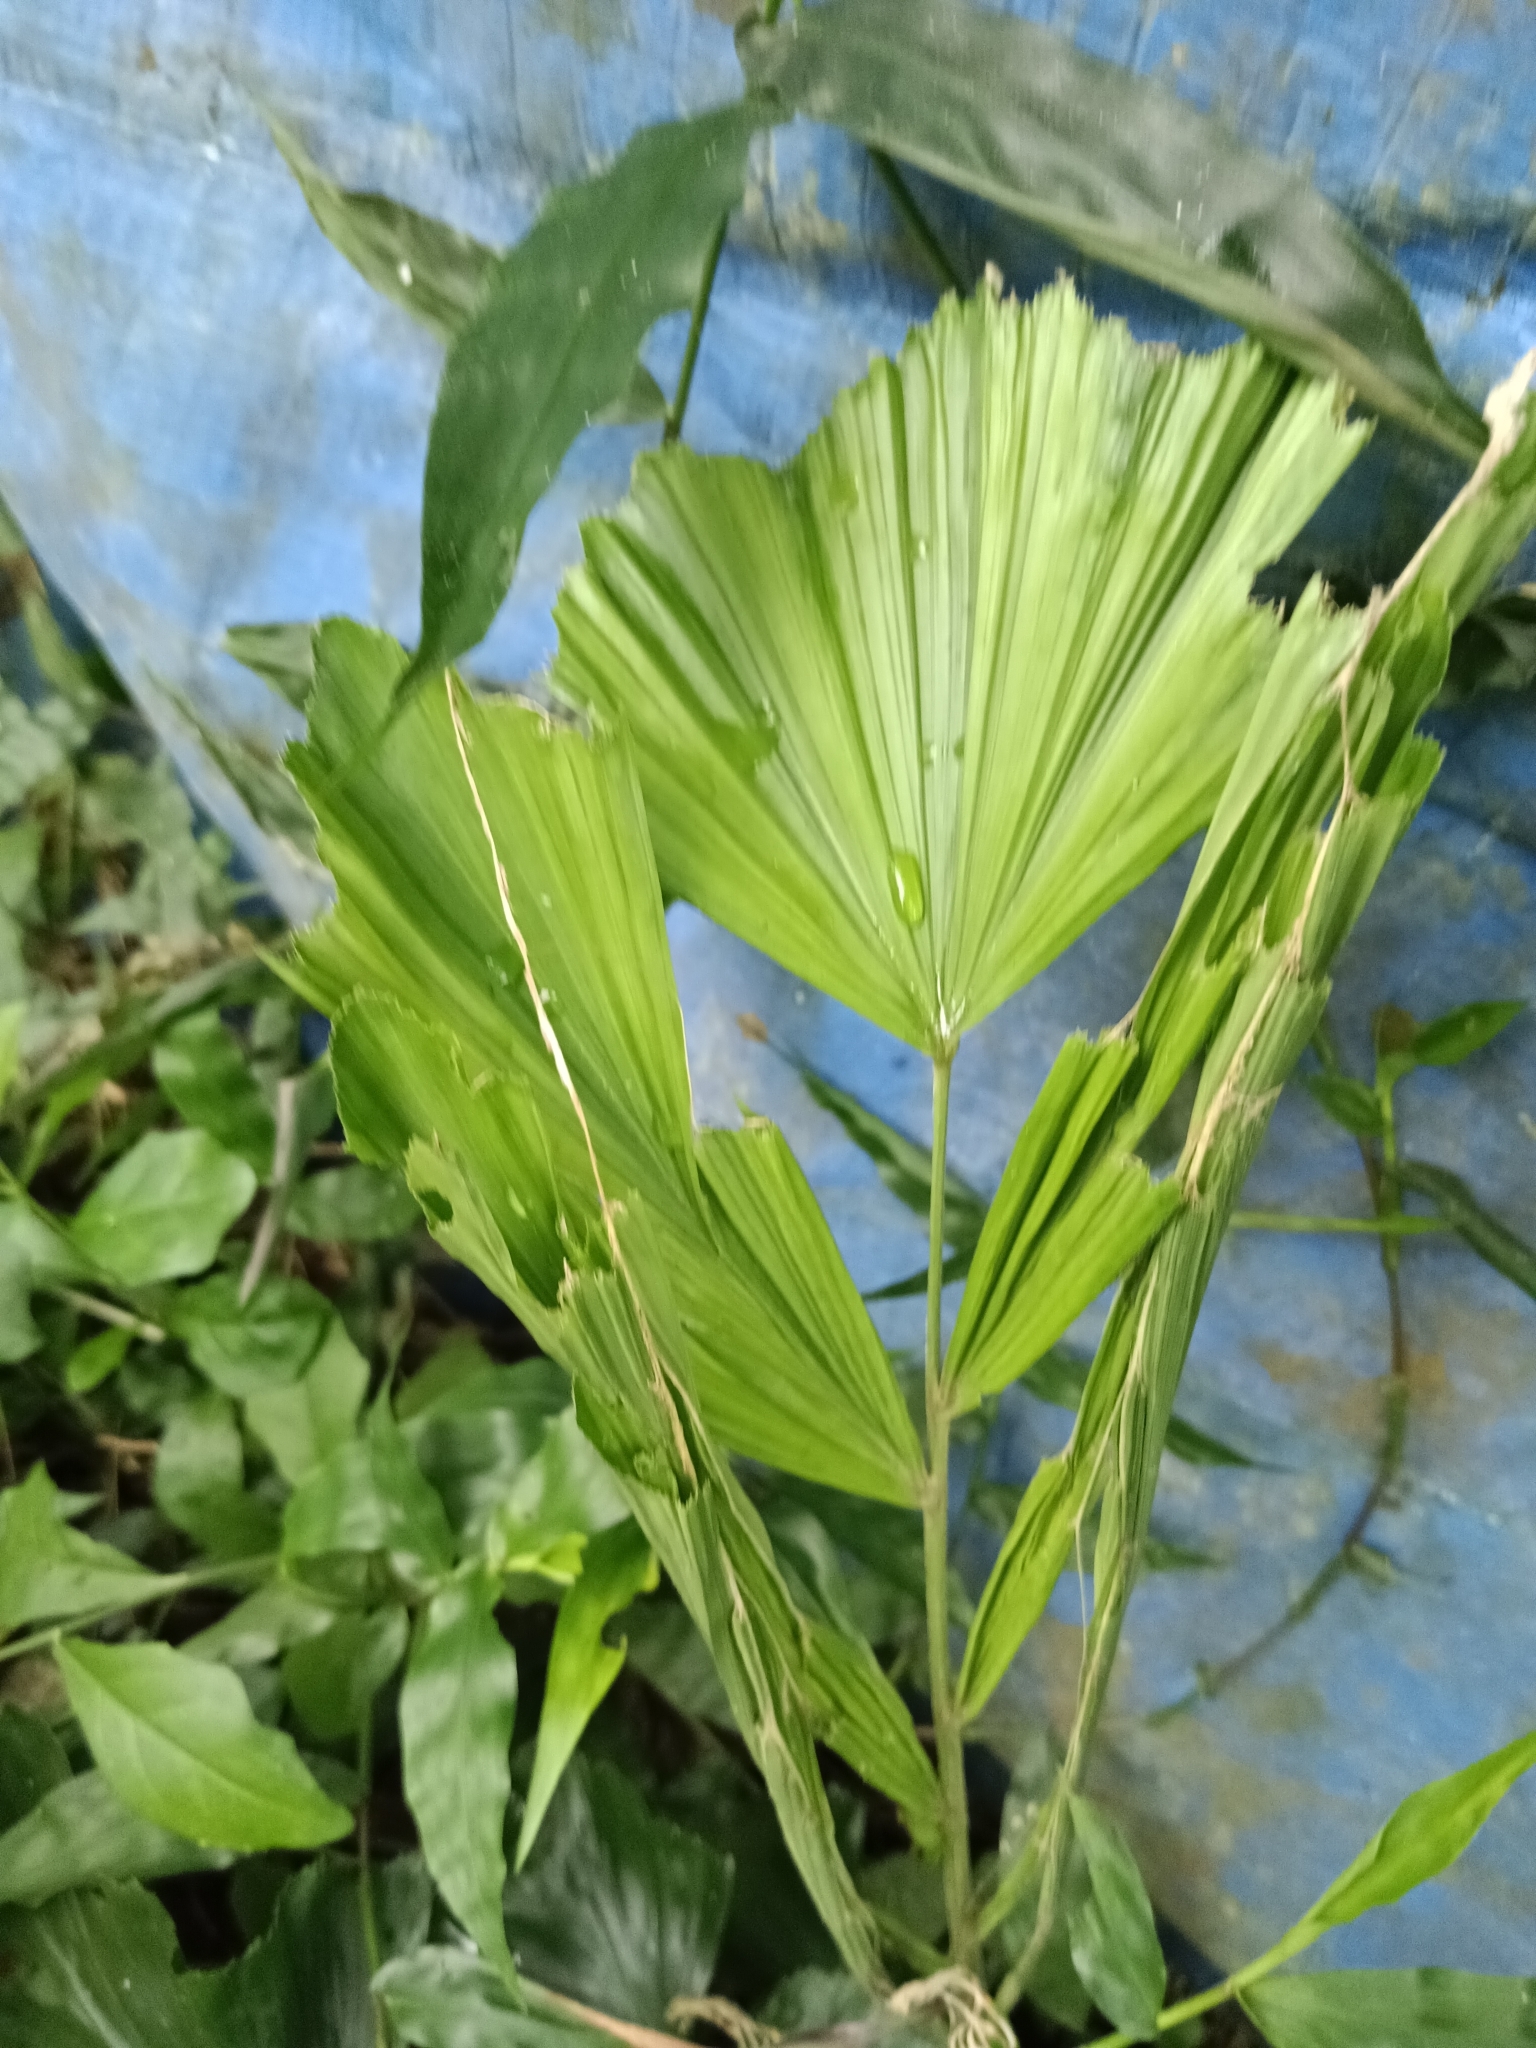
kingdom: Plantae
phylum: Tracheophyta
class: Liliopsida
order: Arecales
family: Arecaceae
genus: Caryota
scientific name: Caryota urens
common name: Jaggery palm
